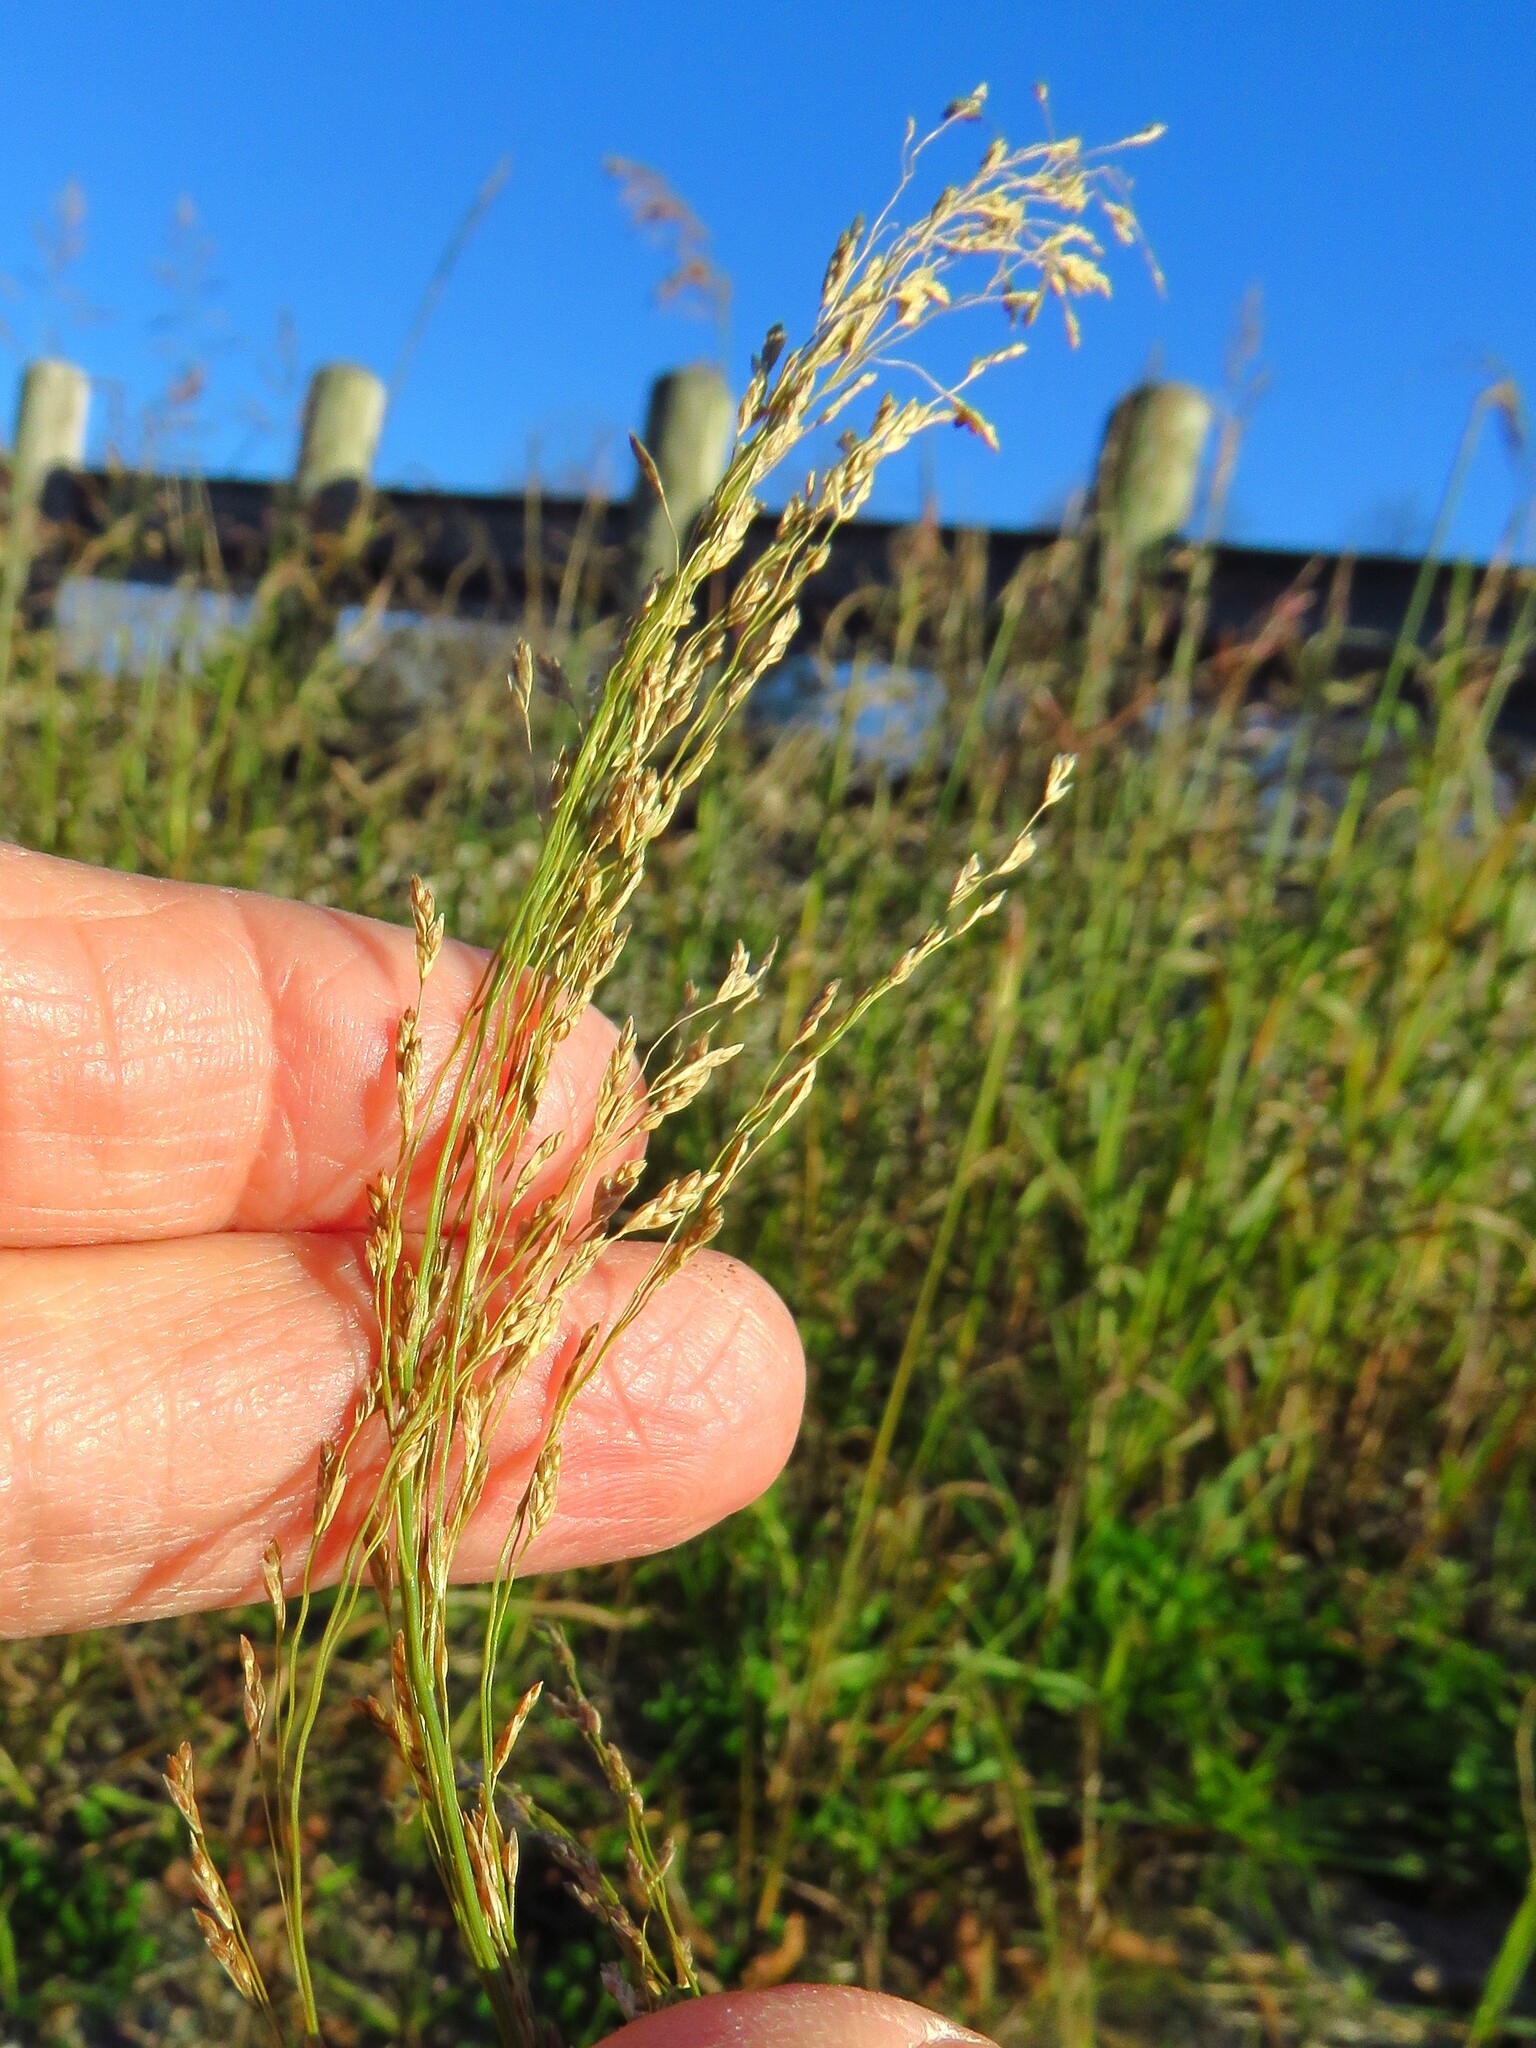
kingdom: Plantae
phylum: Tracheophyta
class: Liliopsida
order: Poales
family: Poaceae
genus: Eragrostis
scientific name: Eragrostis curvula
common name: African love-grass
